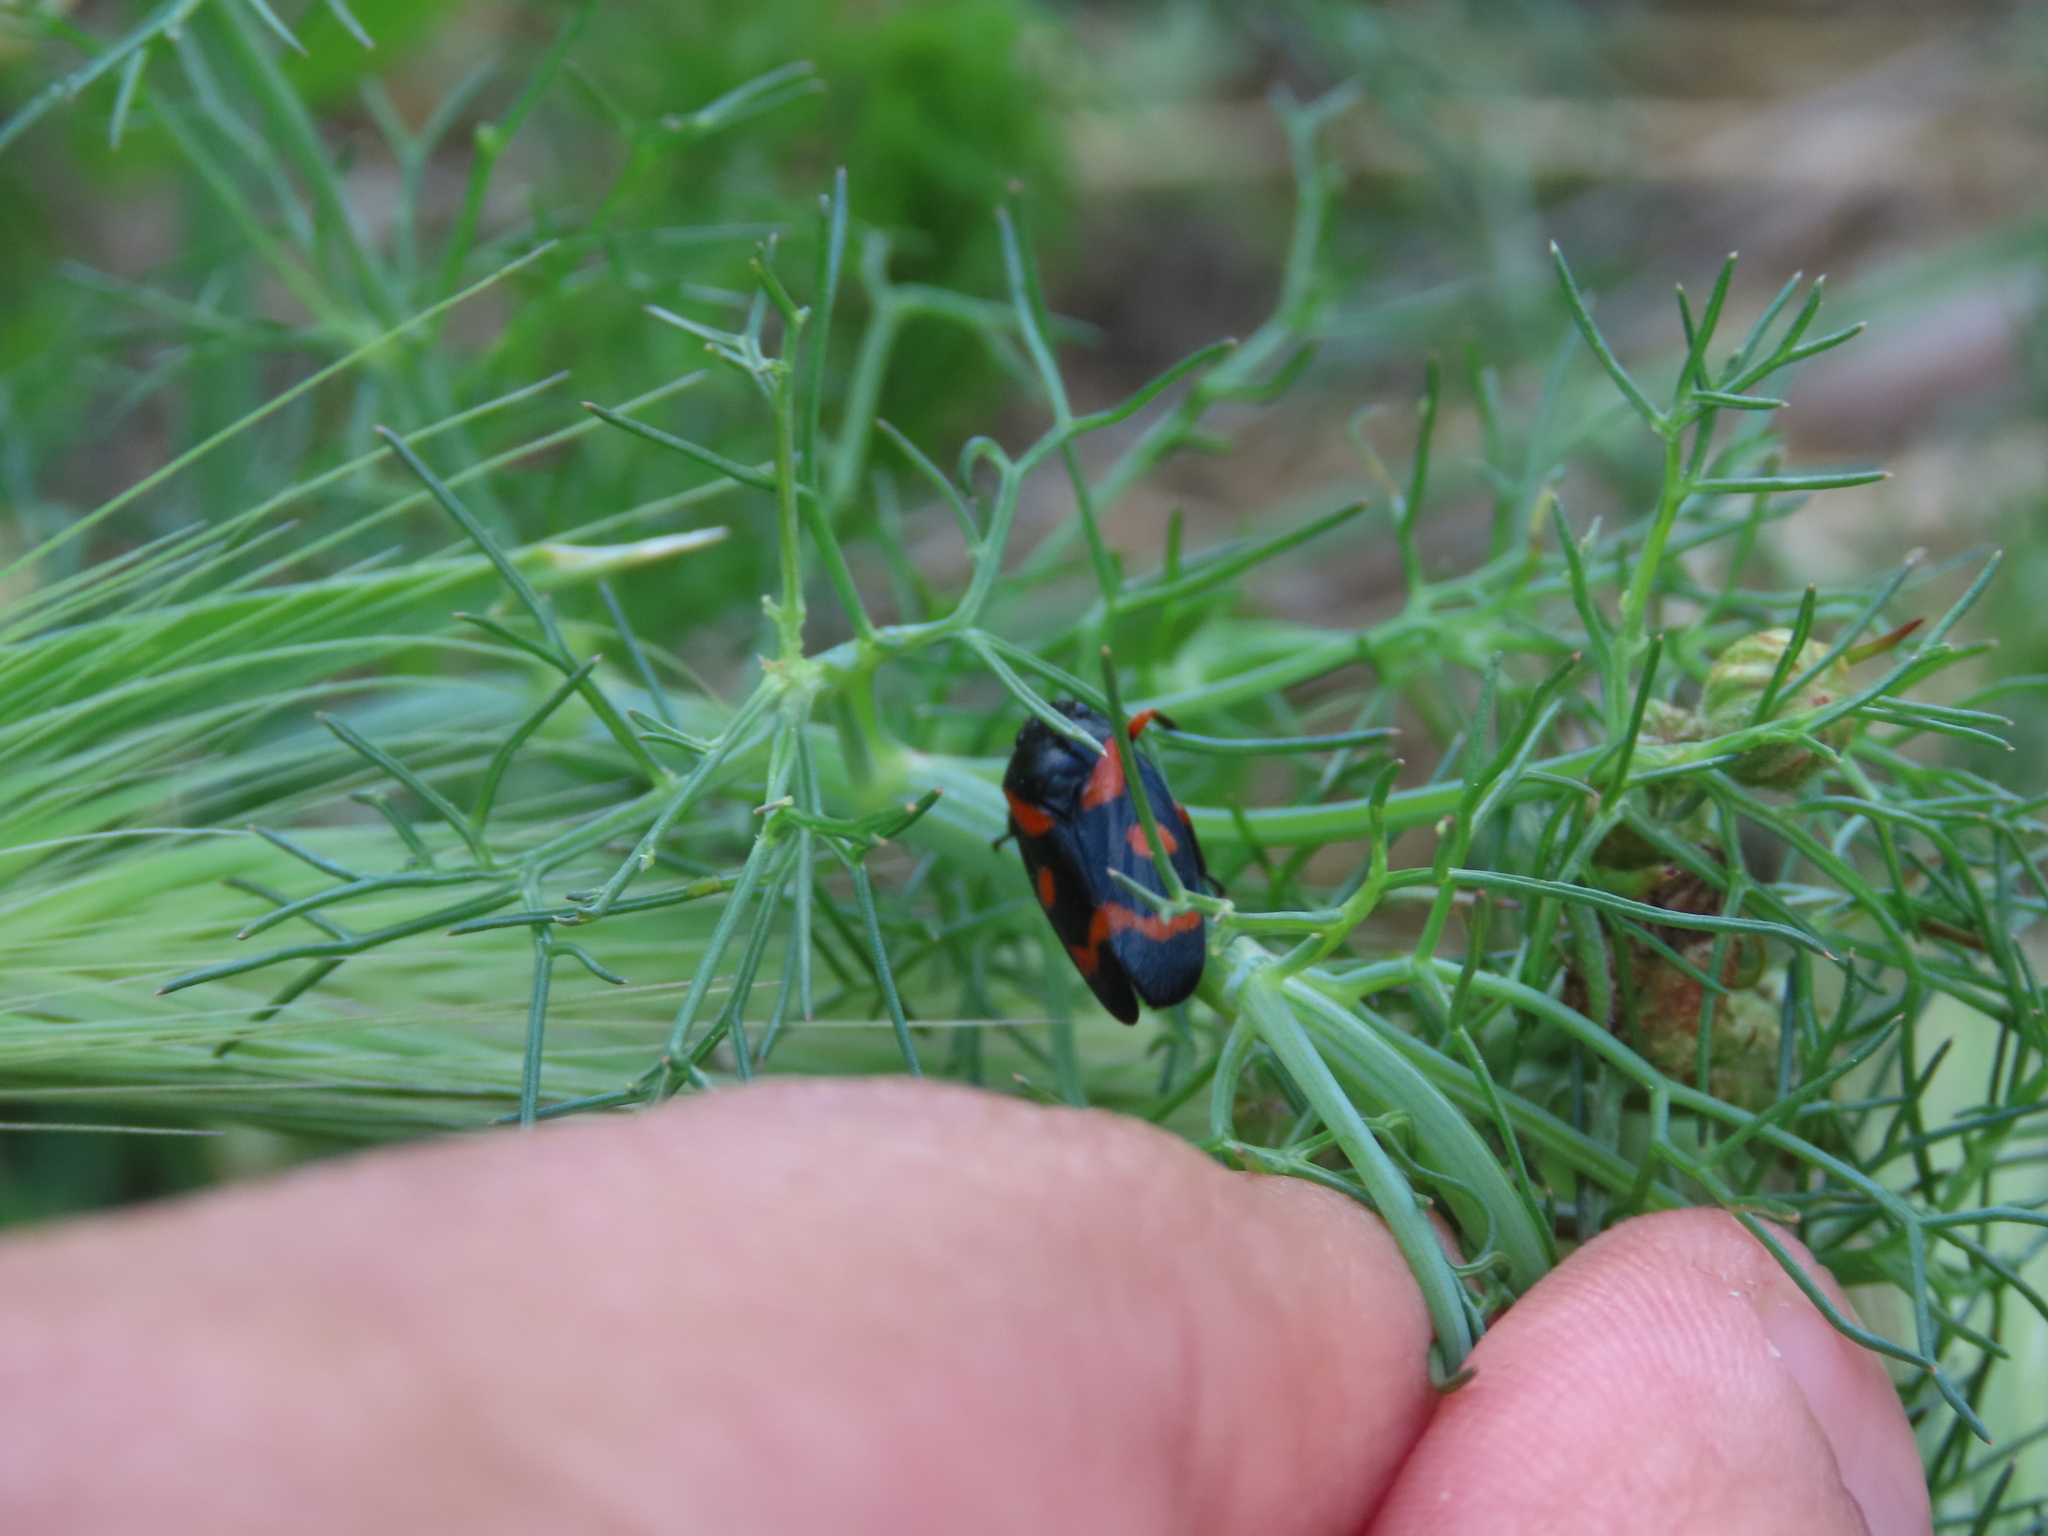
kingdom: Animalia
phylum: Arthropoda
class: Insecta
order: Hemiptera
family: Cercopidae
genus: Cercopis
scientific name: Cercopis intermedia
